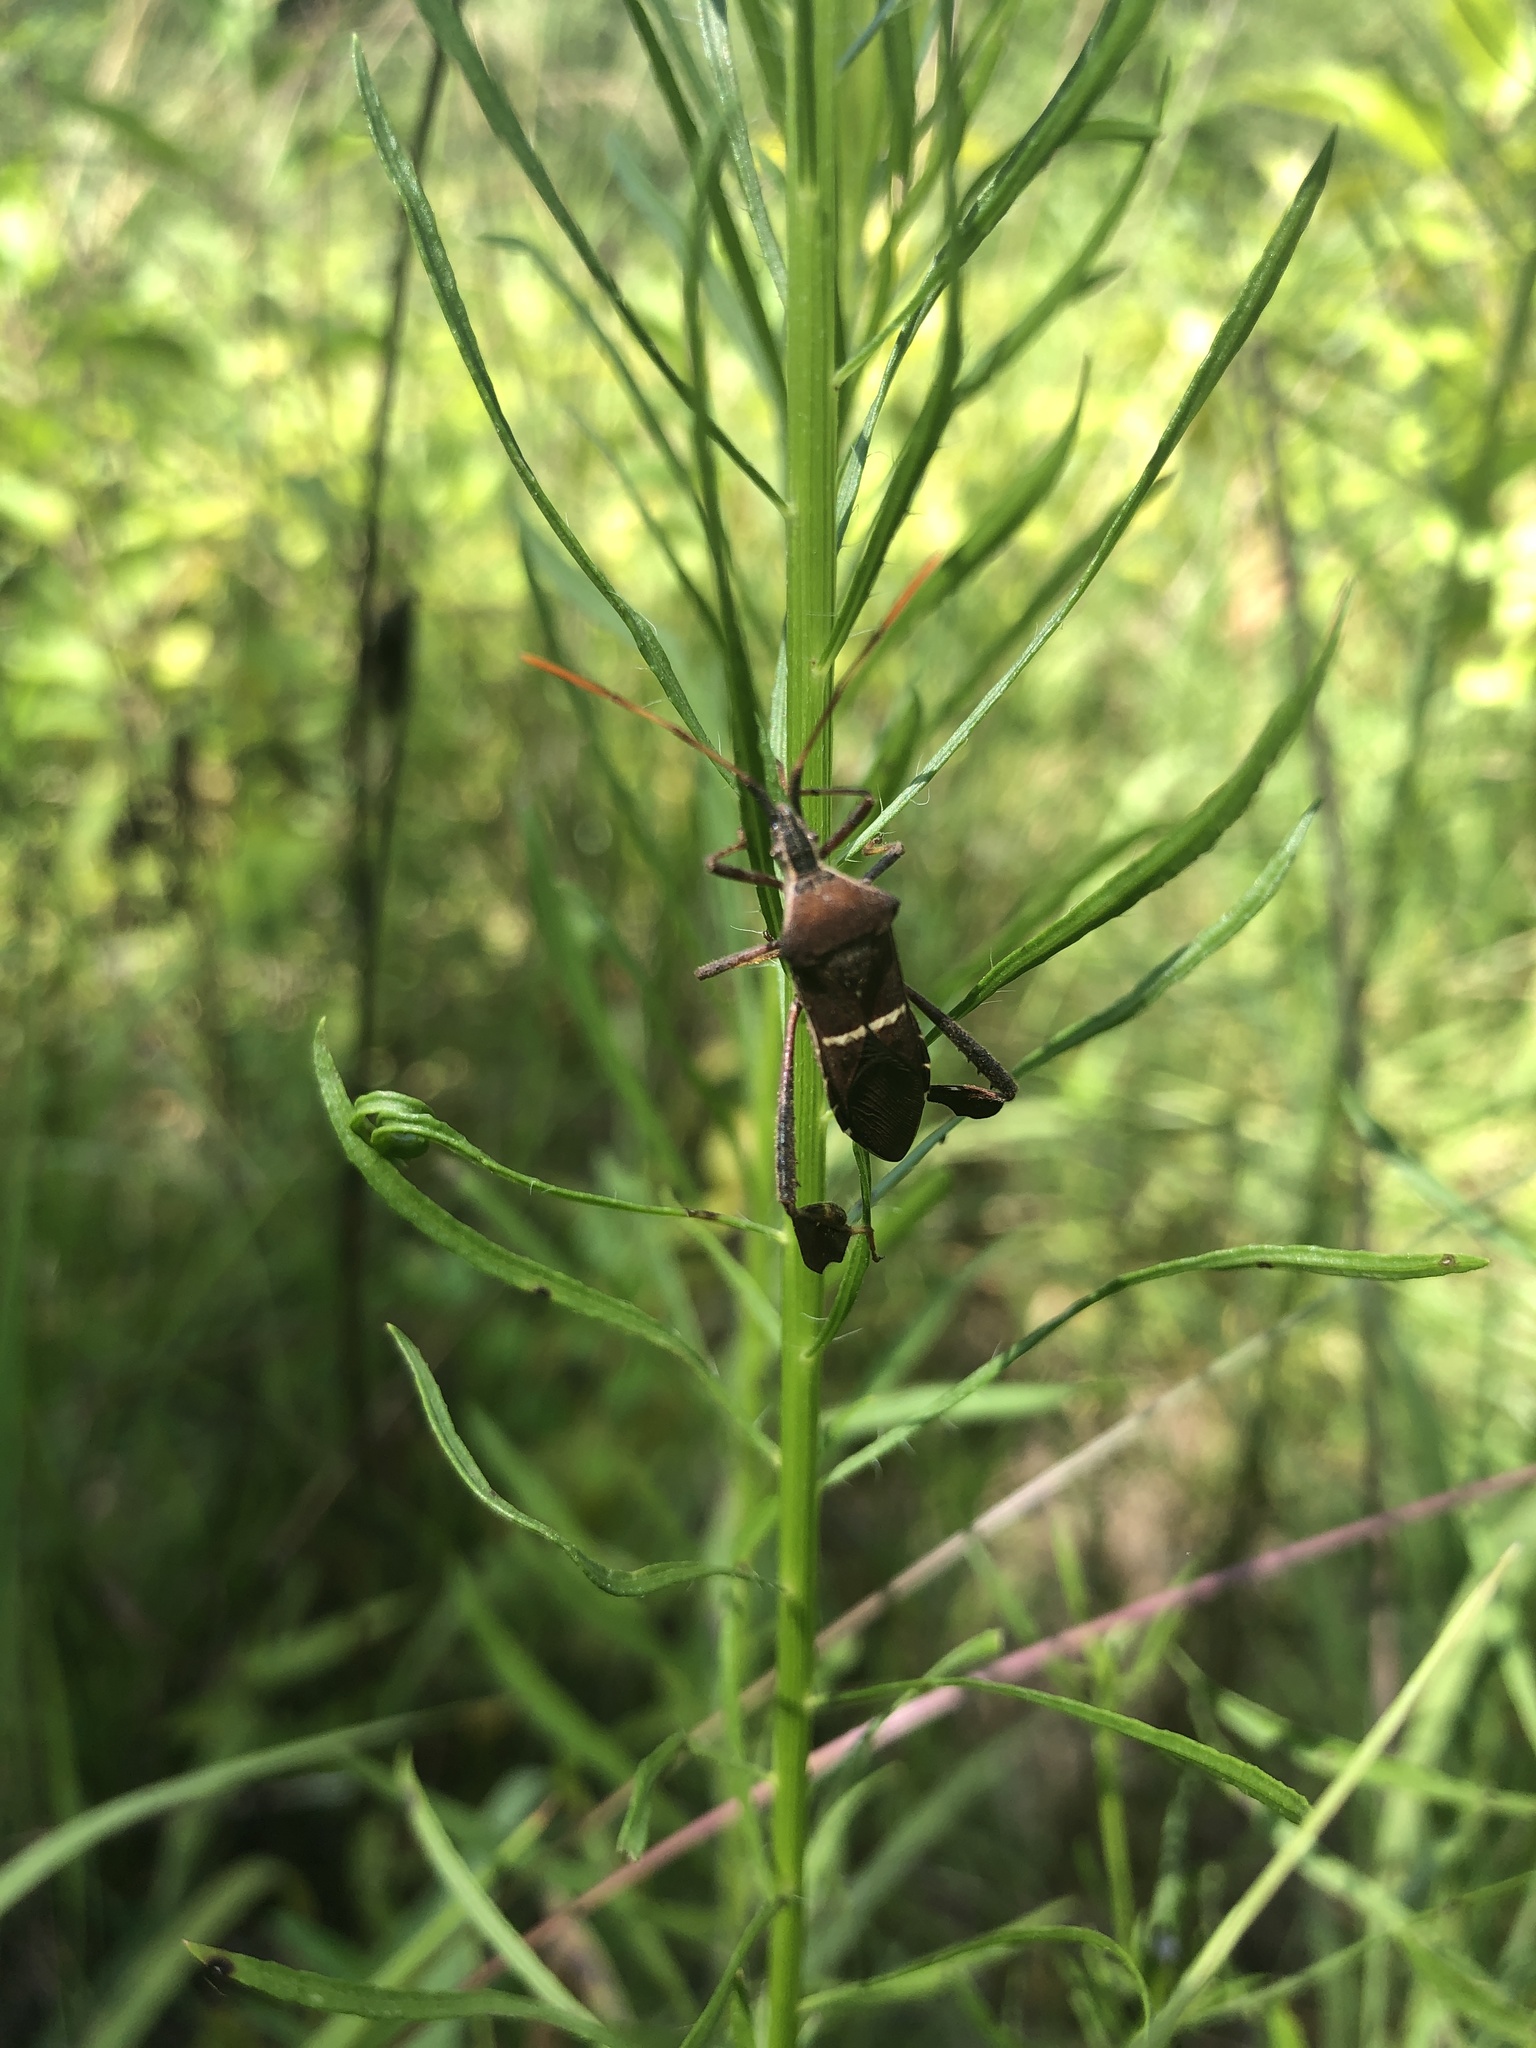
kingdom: Animalia
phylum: Arthropoda
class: Insecta
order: Hemiptera
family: Coreidae
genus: Leptoglossus
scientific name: Leptoglossus phyllopus
